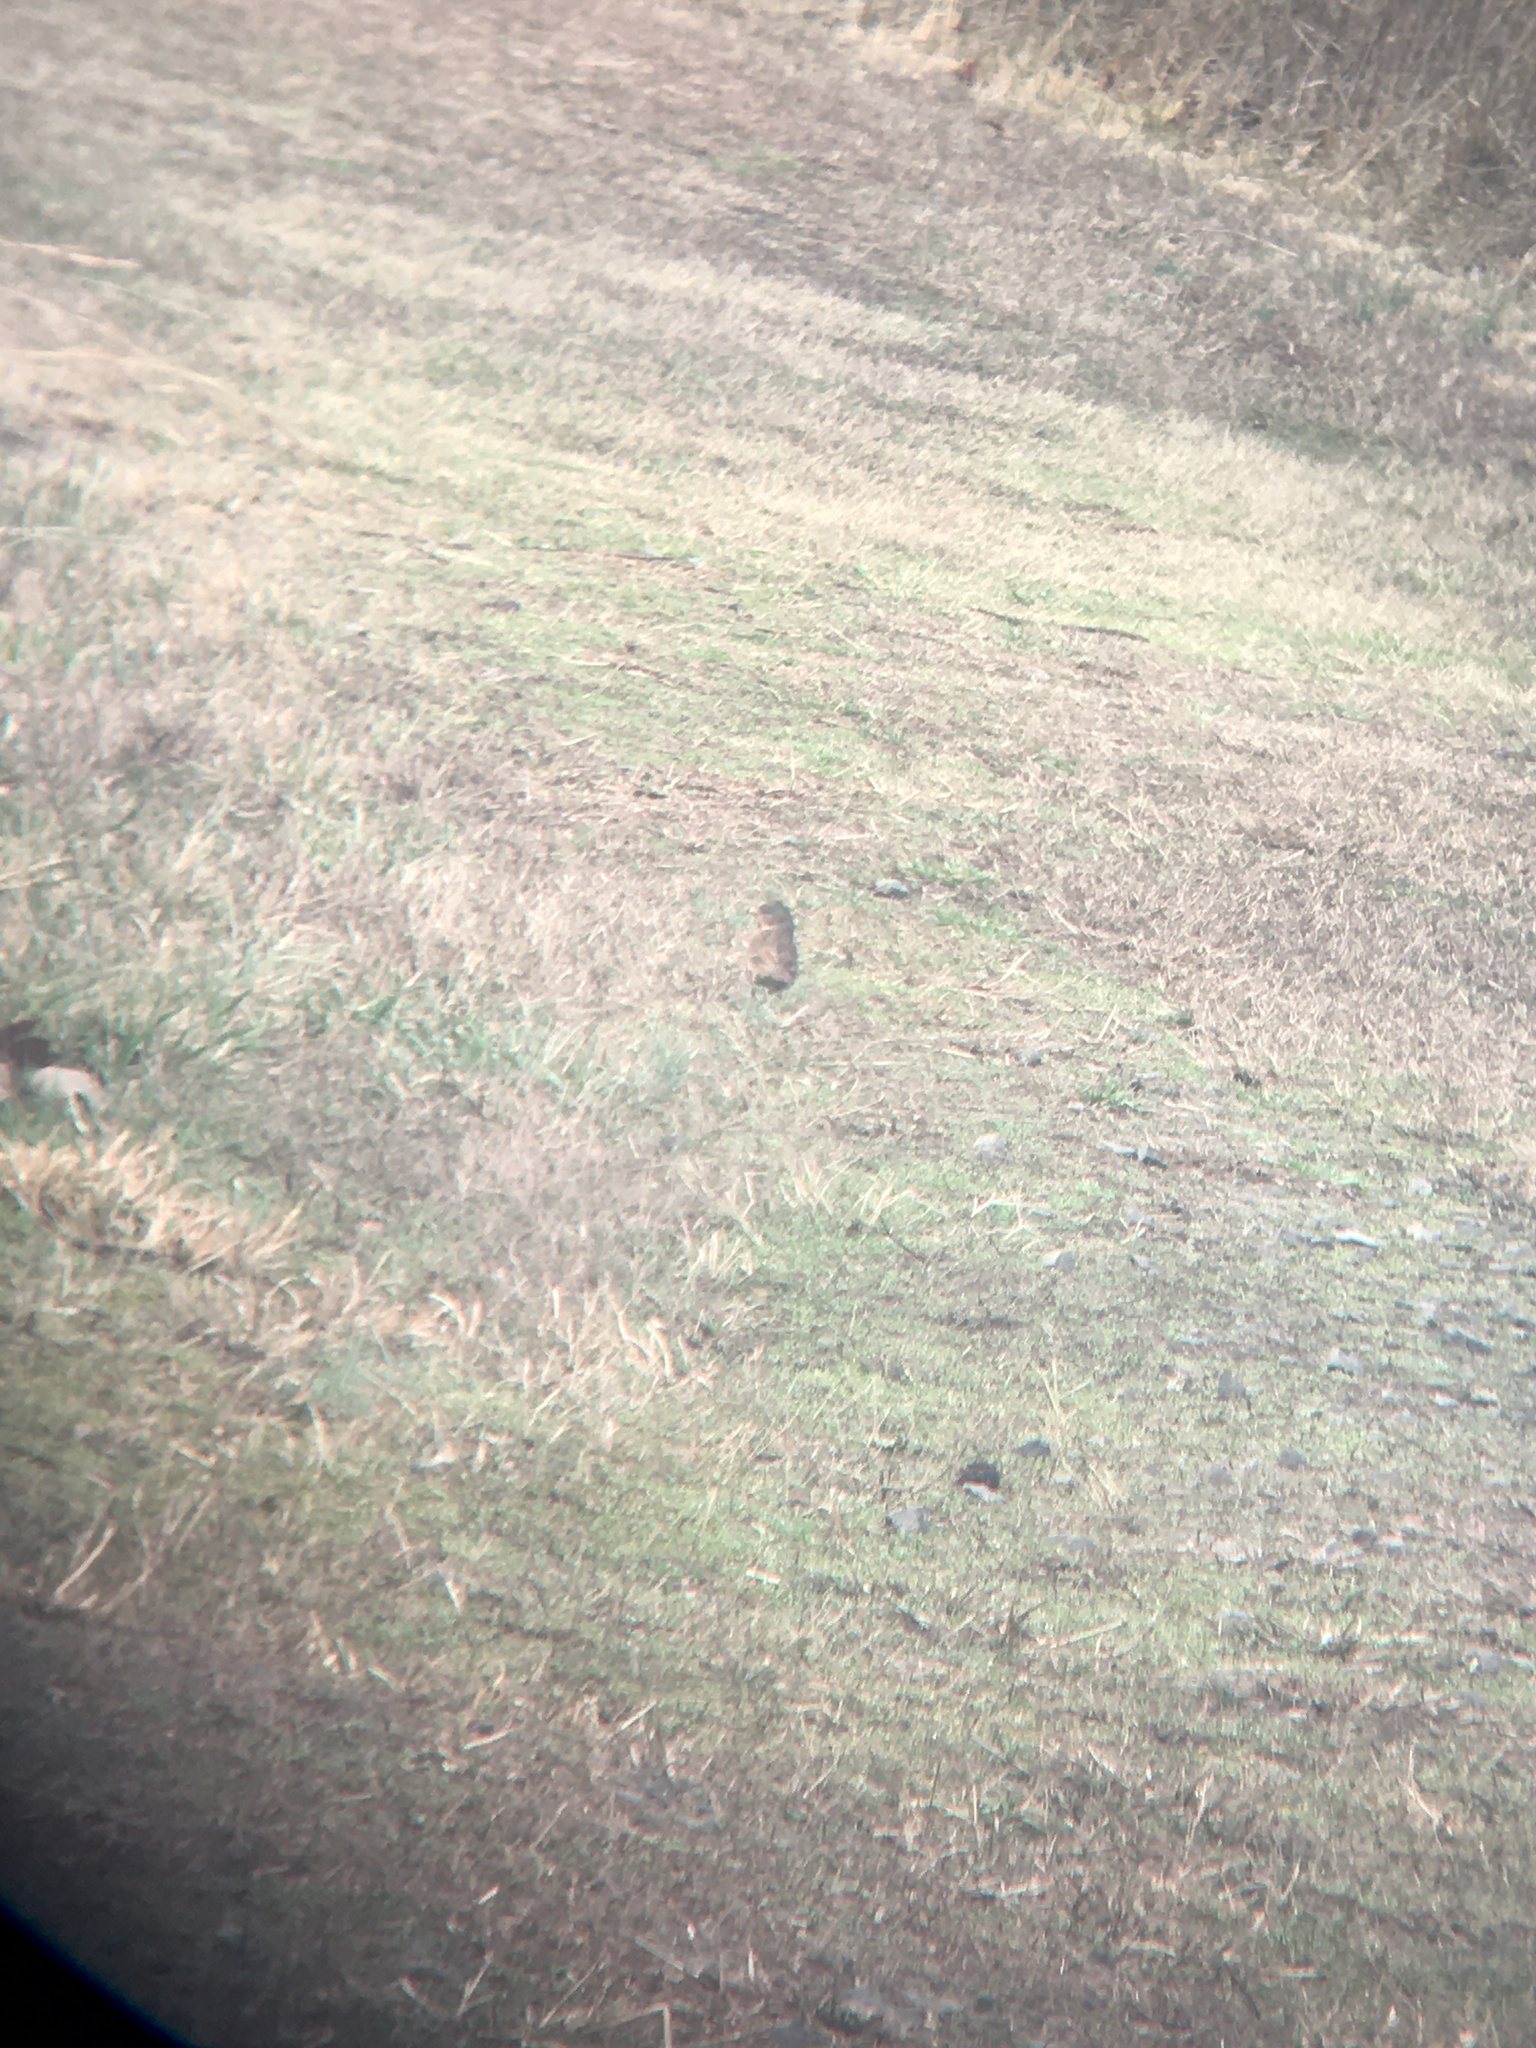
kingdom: Animalia
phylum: Chordata
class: Aves
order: Passeriformes
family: Passerellidae
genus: Passerella
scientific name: Passerella iliaca
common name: Fox sparrow
